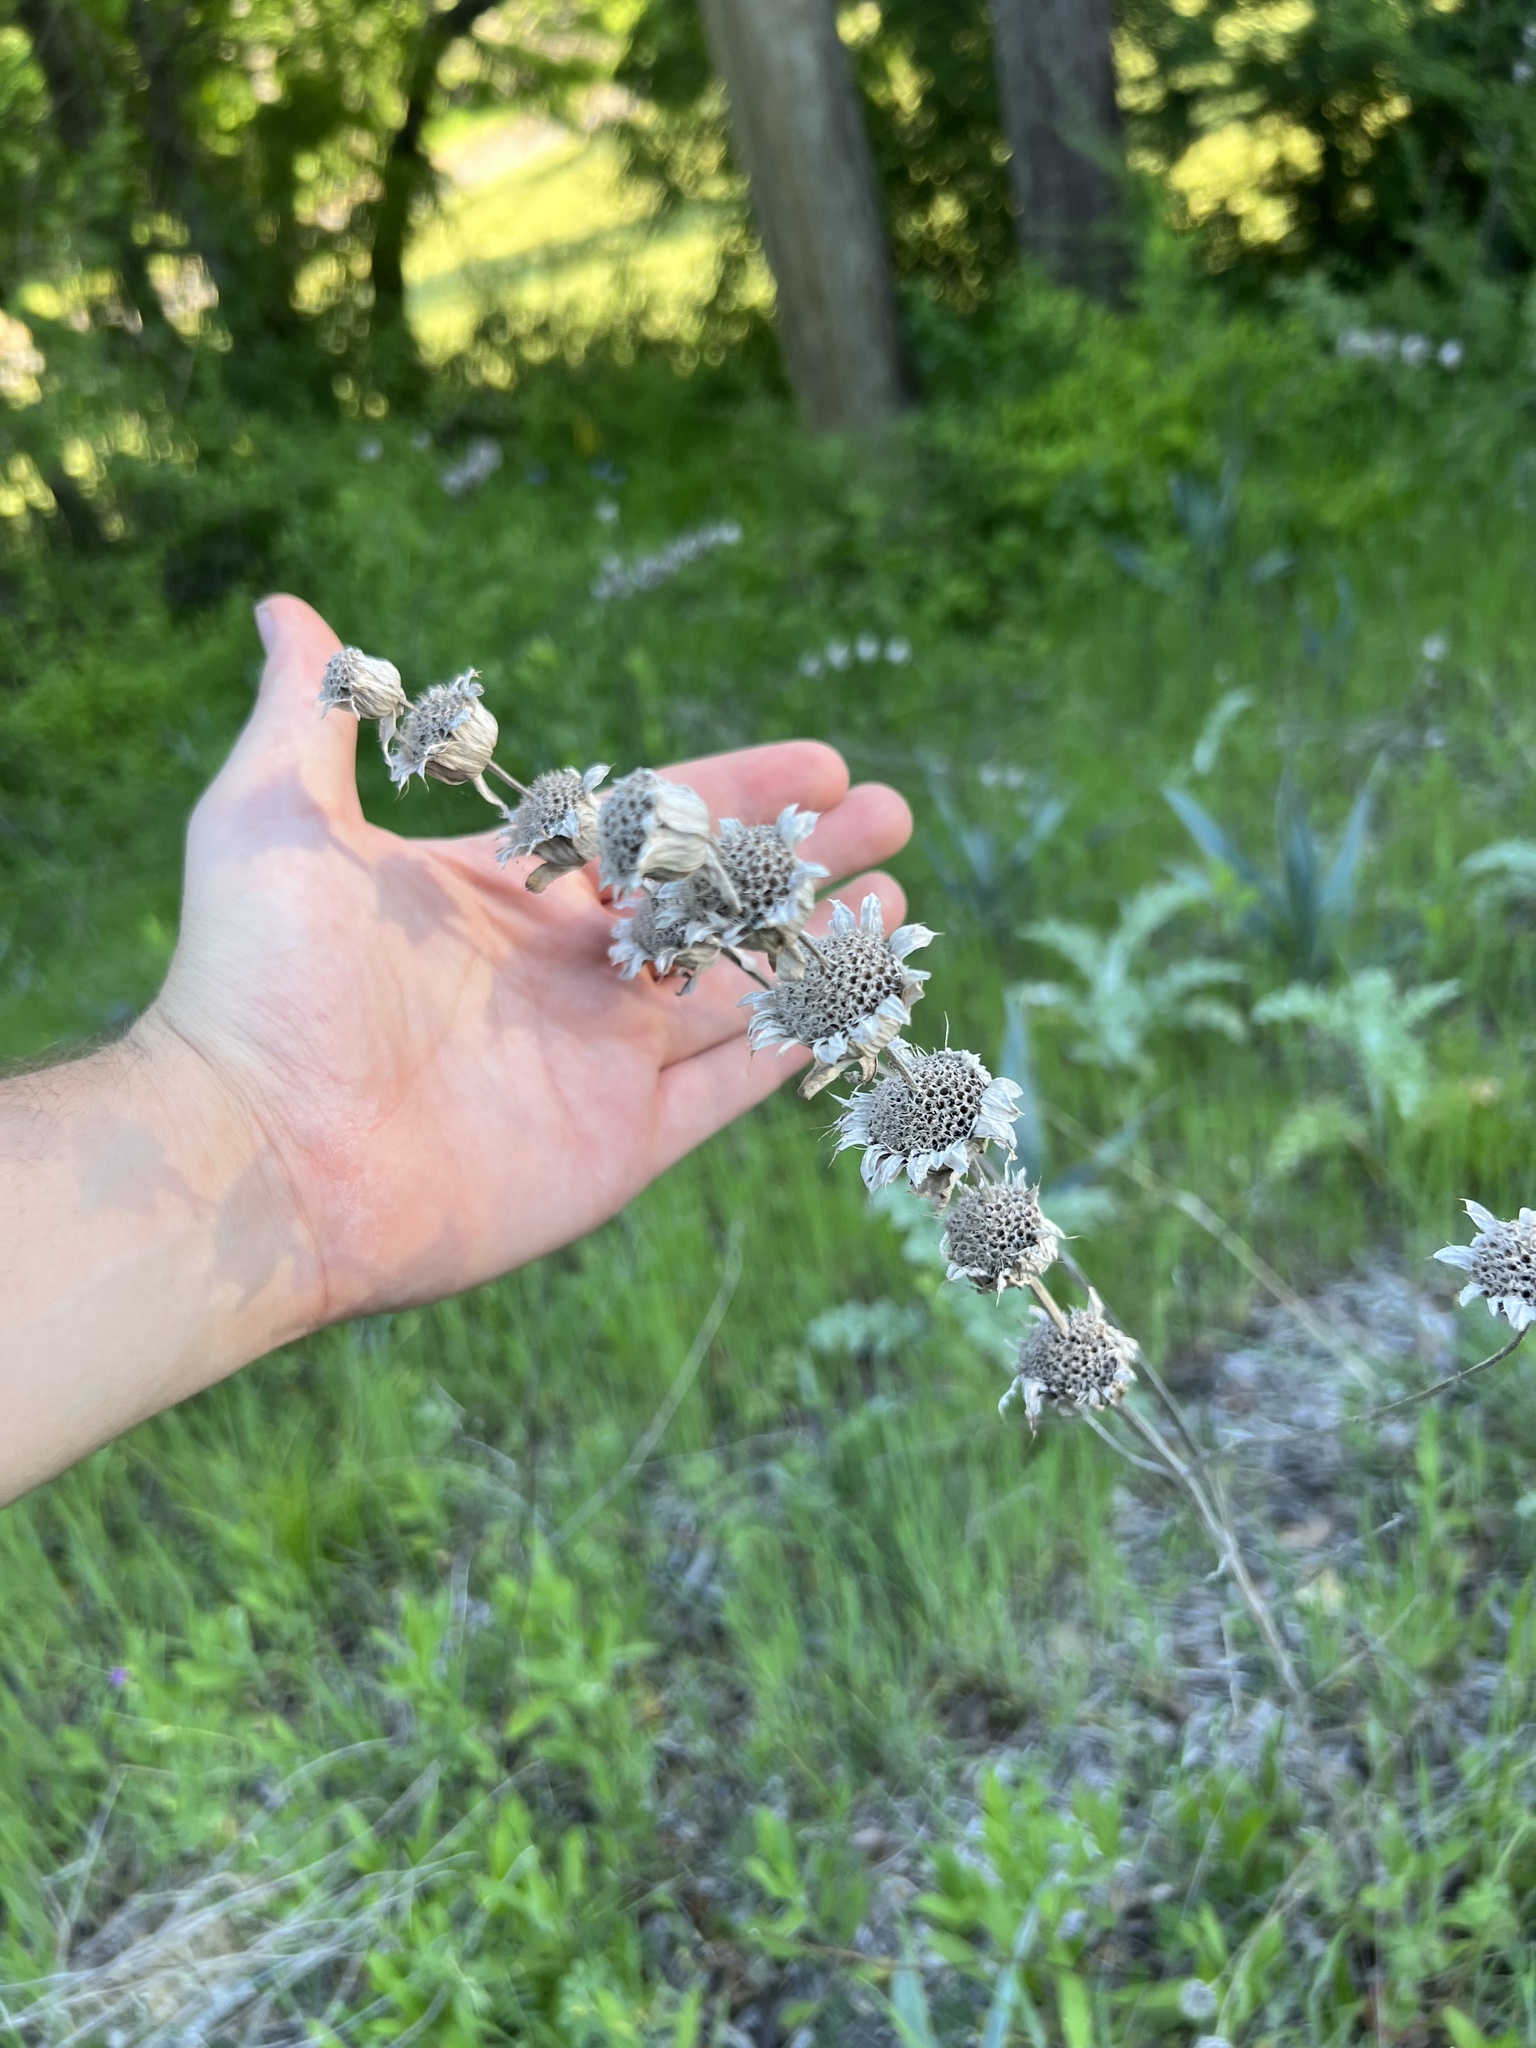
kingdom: Plantae
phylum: Tracheophyta
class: Magnoliopsida
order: Lamiales
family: Lamiaceae
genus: Monarda
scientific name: Monarda citriodora
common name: Lemon beebalm
